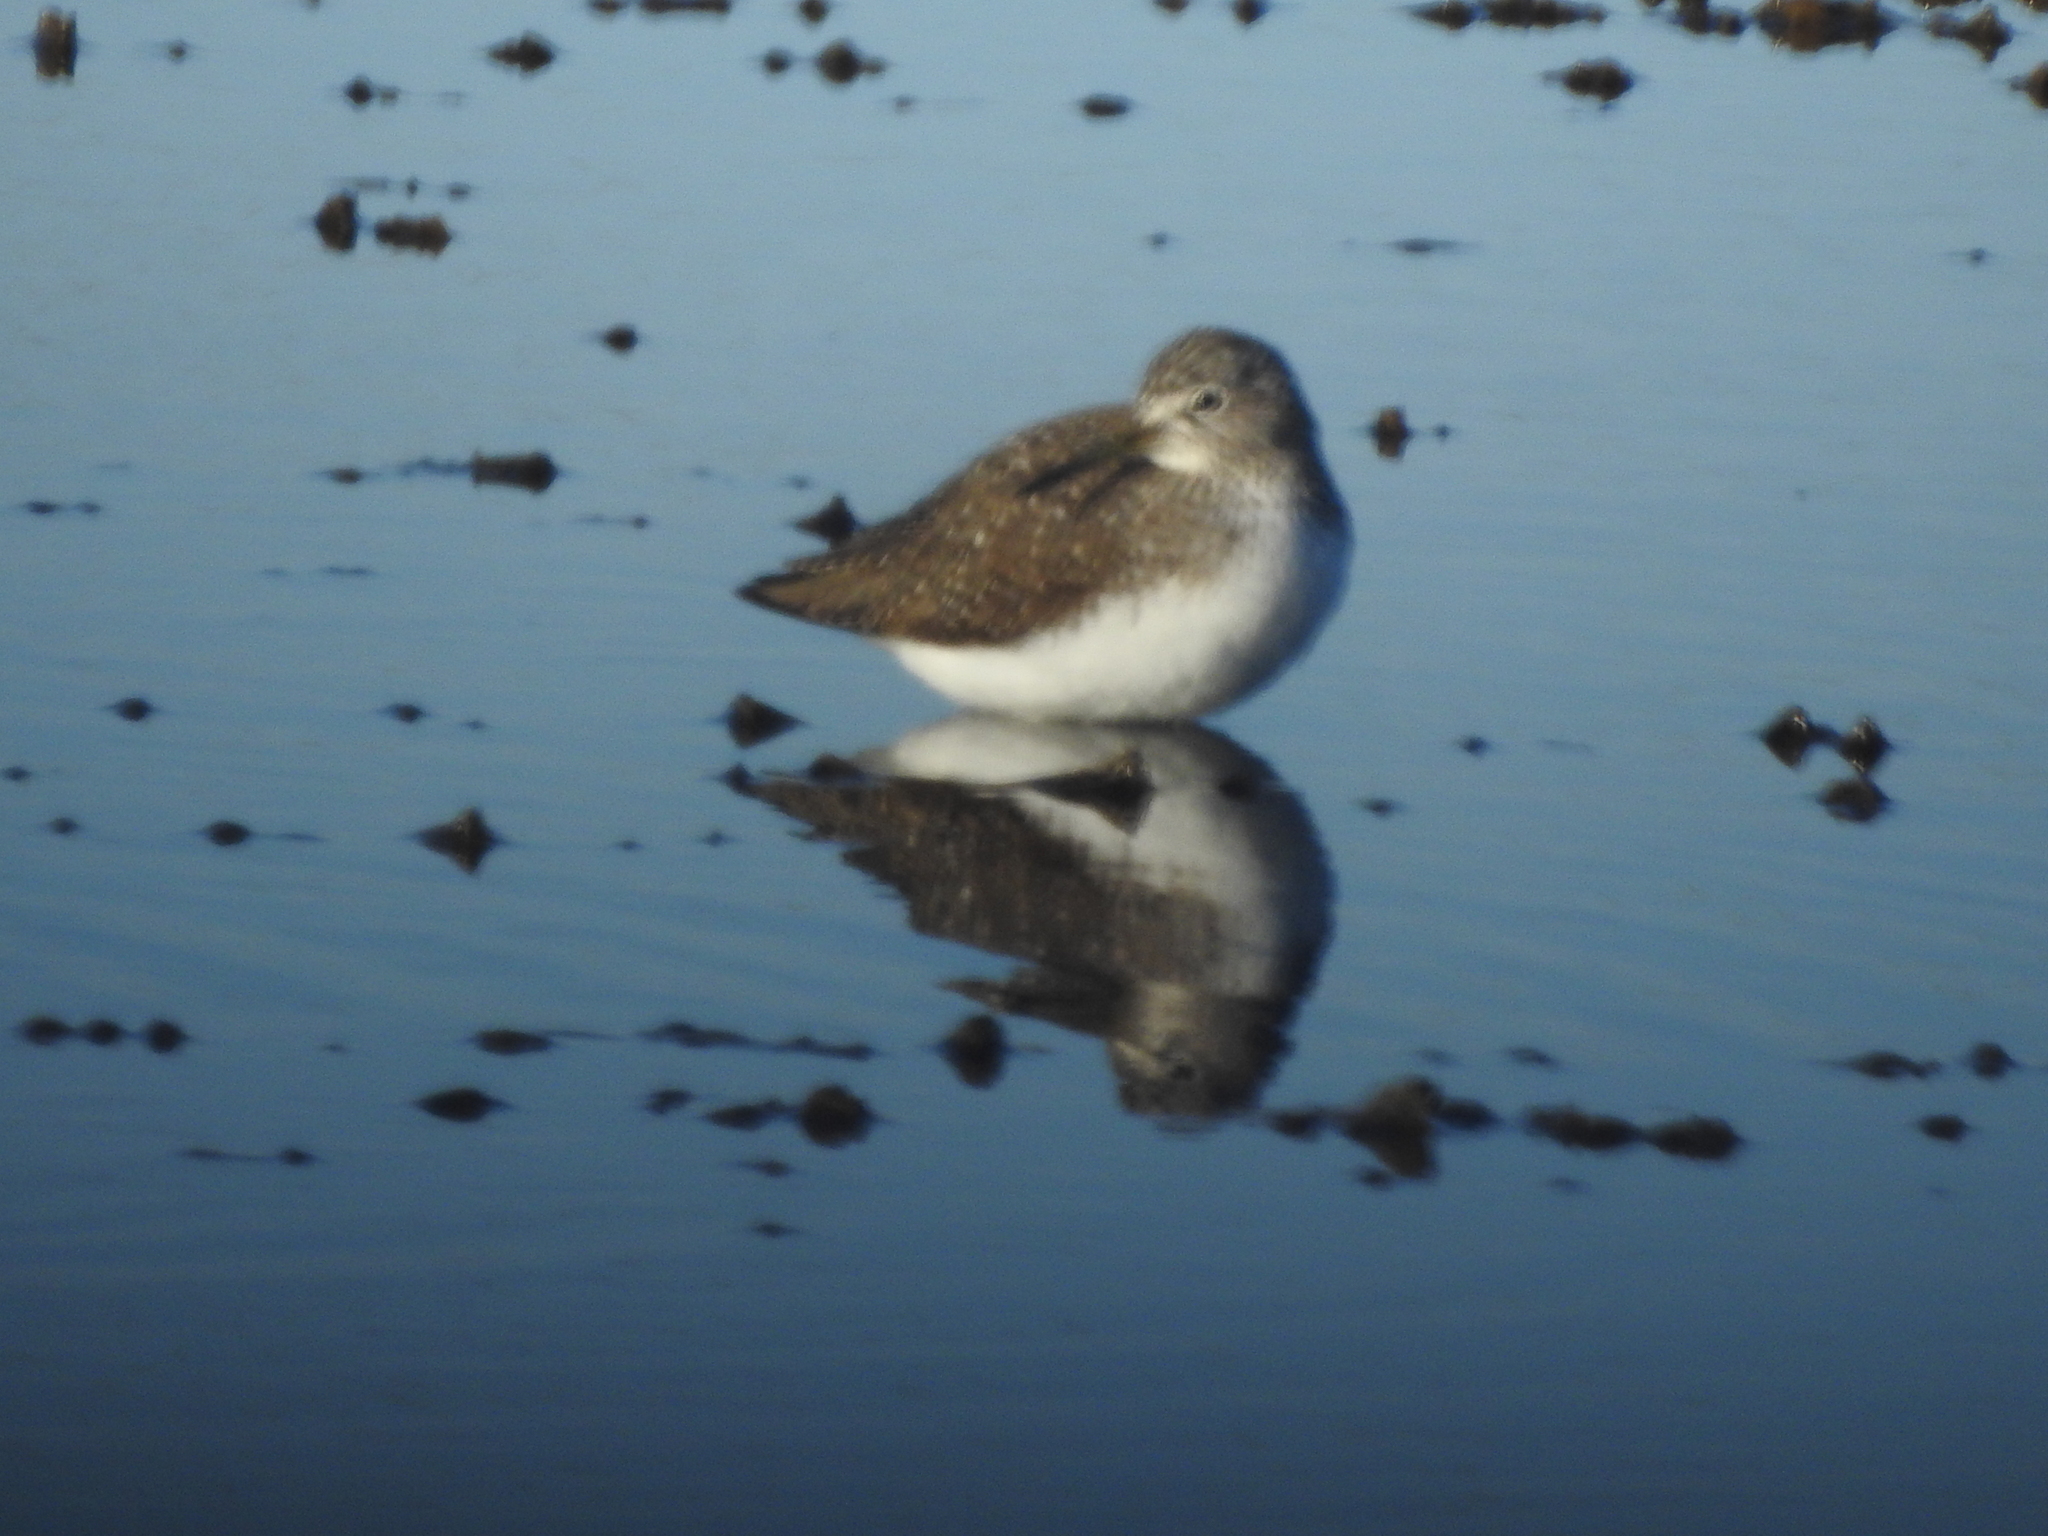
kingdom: Animalia
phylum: Chordata
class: Aves
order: Charadriiformes
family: Scolopacidae
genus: Tringa
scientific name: Tringa ochropus
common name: Green sandpiper
